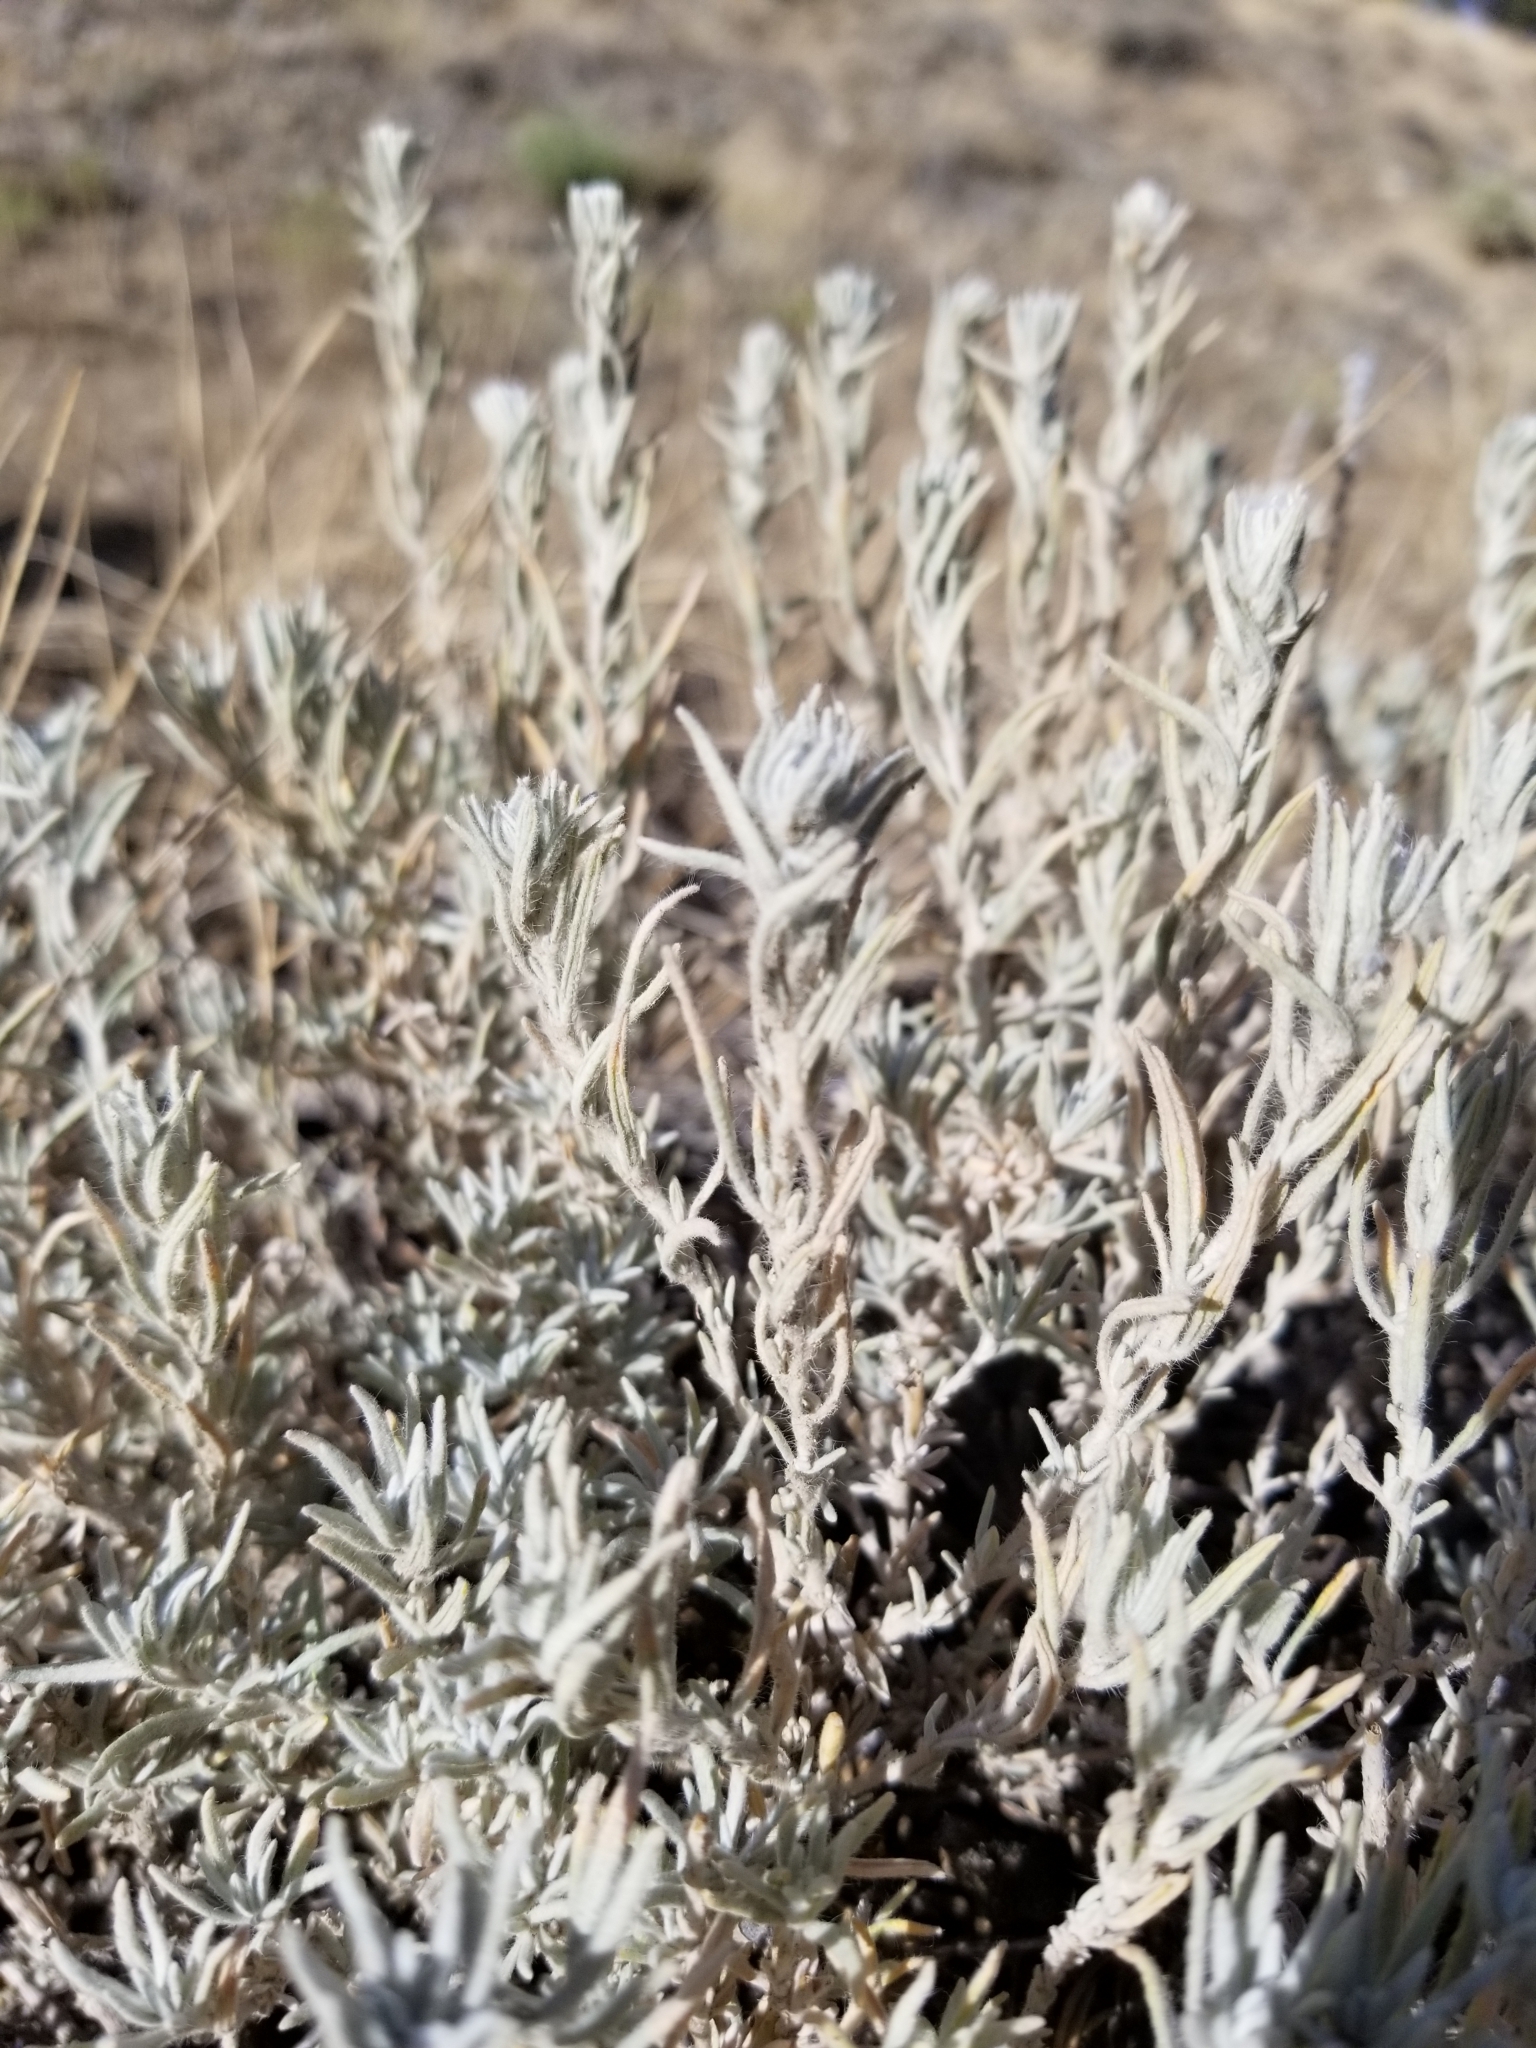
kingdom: Plantae
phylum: Tracheophyta
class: Magnoliopsida
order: Caryophyllales
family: Amaranthaceae
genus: Krascheninnikovia
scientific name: Krascheninnikovia lanata
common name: Winterfat
